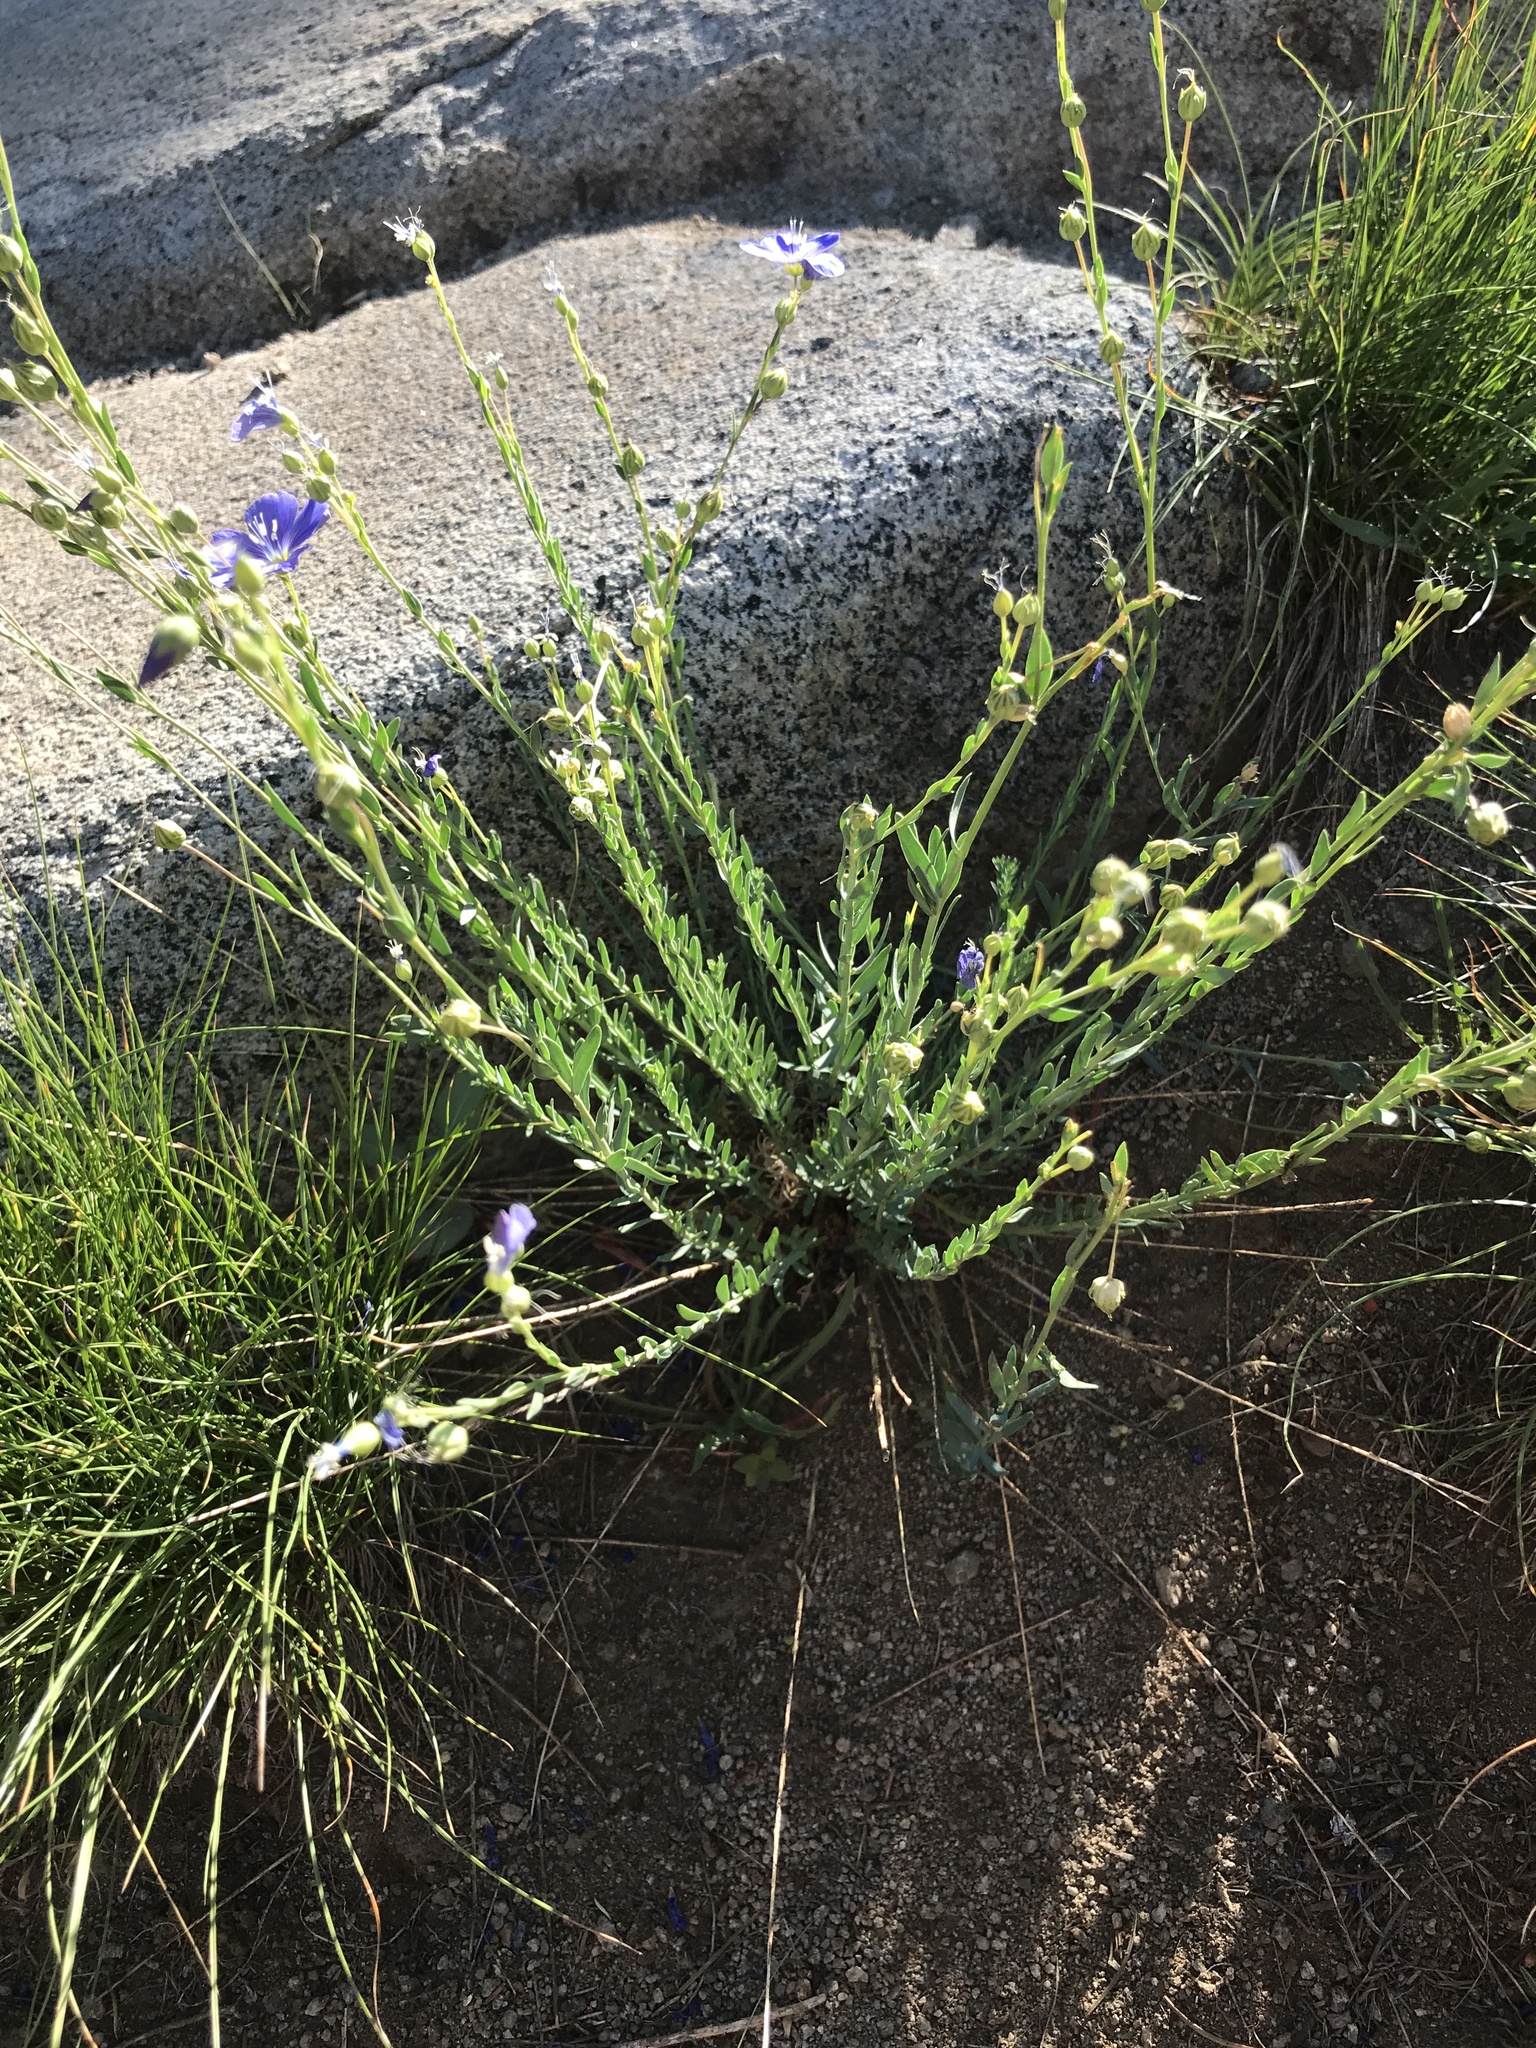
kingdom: Plantae
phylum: Tracheophyta
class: Magnoliopsida
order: Malpighiales
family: Linaceae
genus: Linum
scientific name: Linum lewisii
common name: Prairie flax
